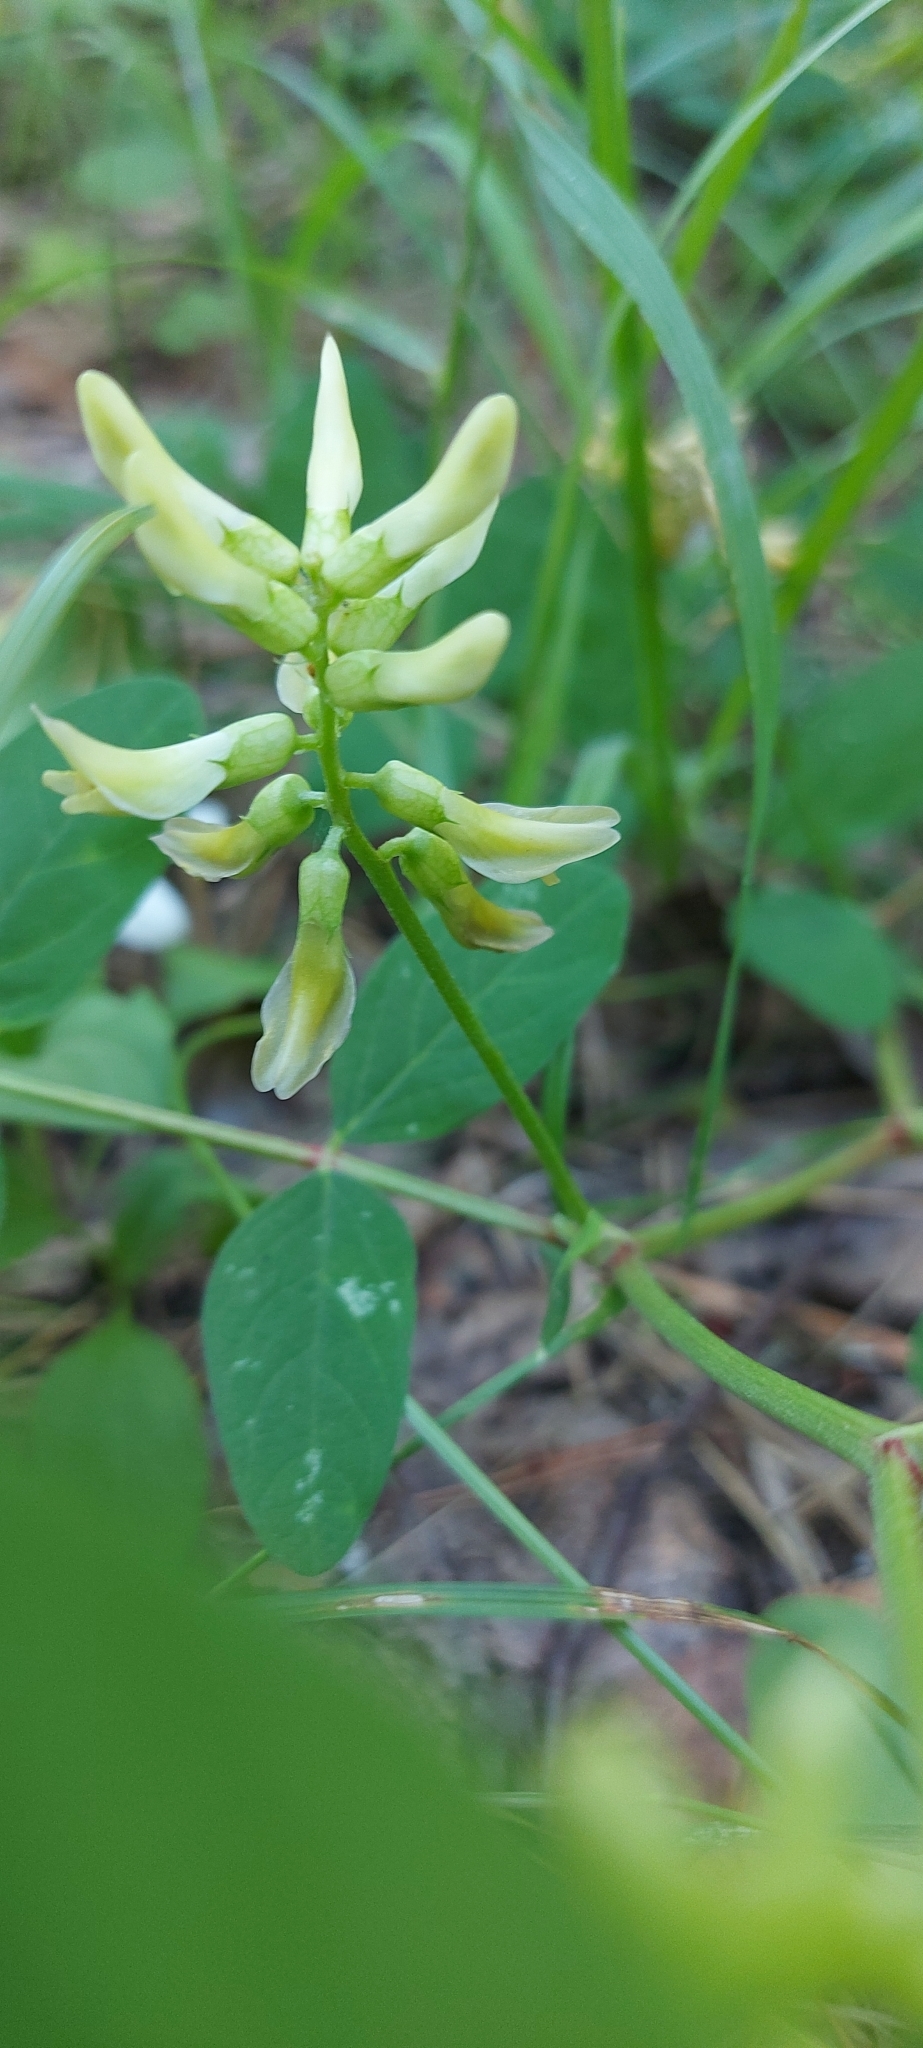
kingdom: Plantae
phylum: Tracheophyta
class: Magnoliopsida
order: Fabales
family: Fabaceae
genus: Astragalus
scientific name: Astragalus glycyphyllos
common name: Wild liquorice
